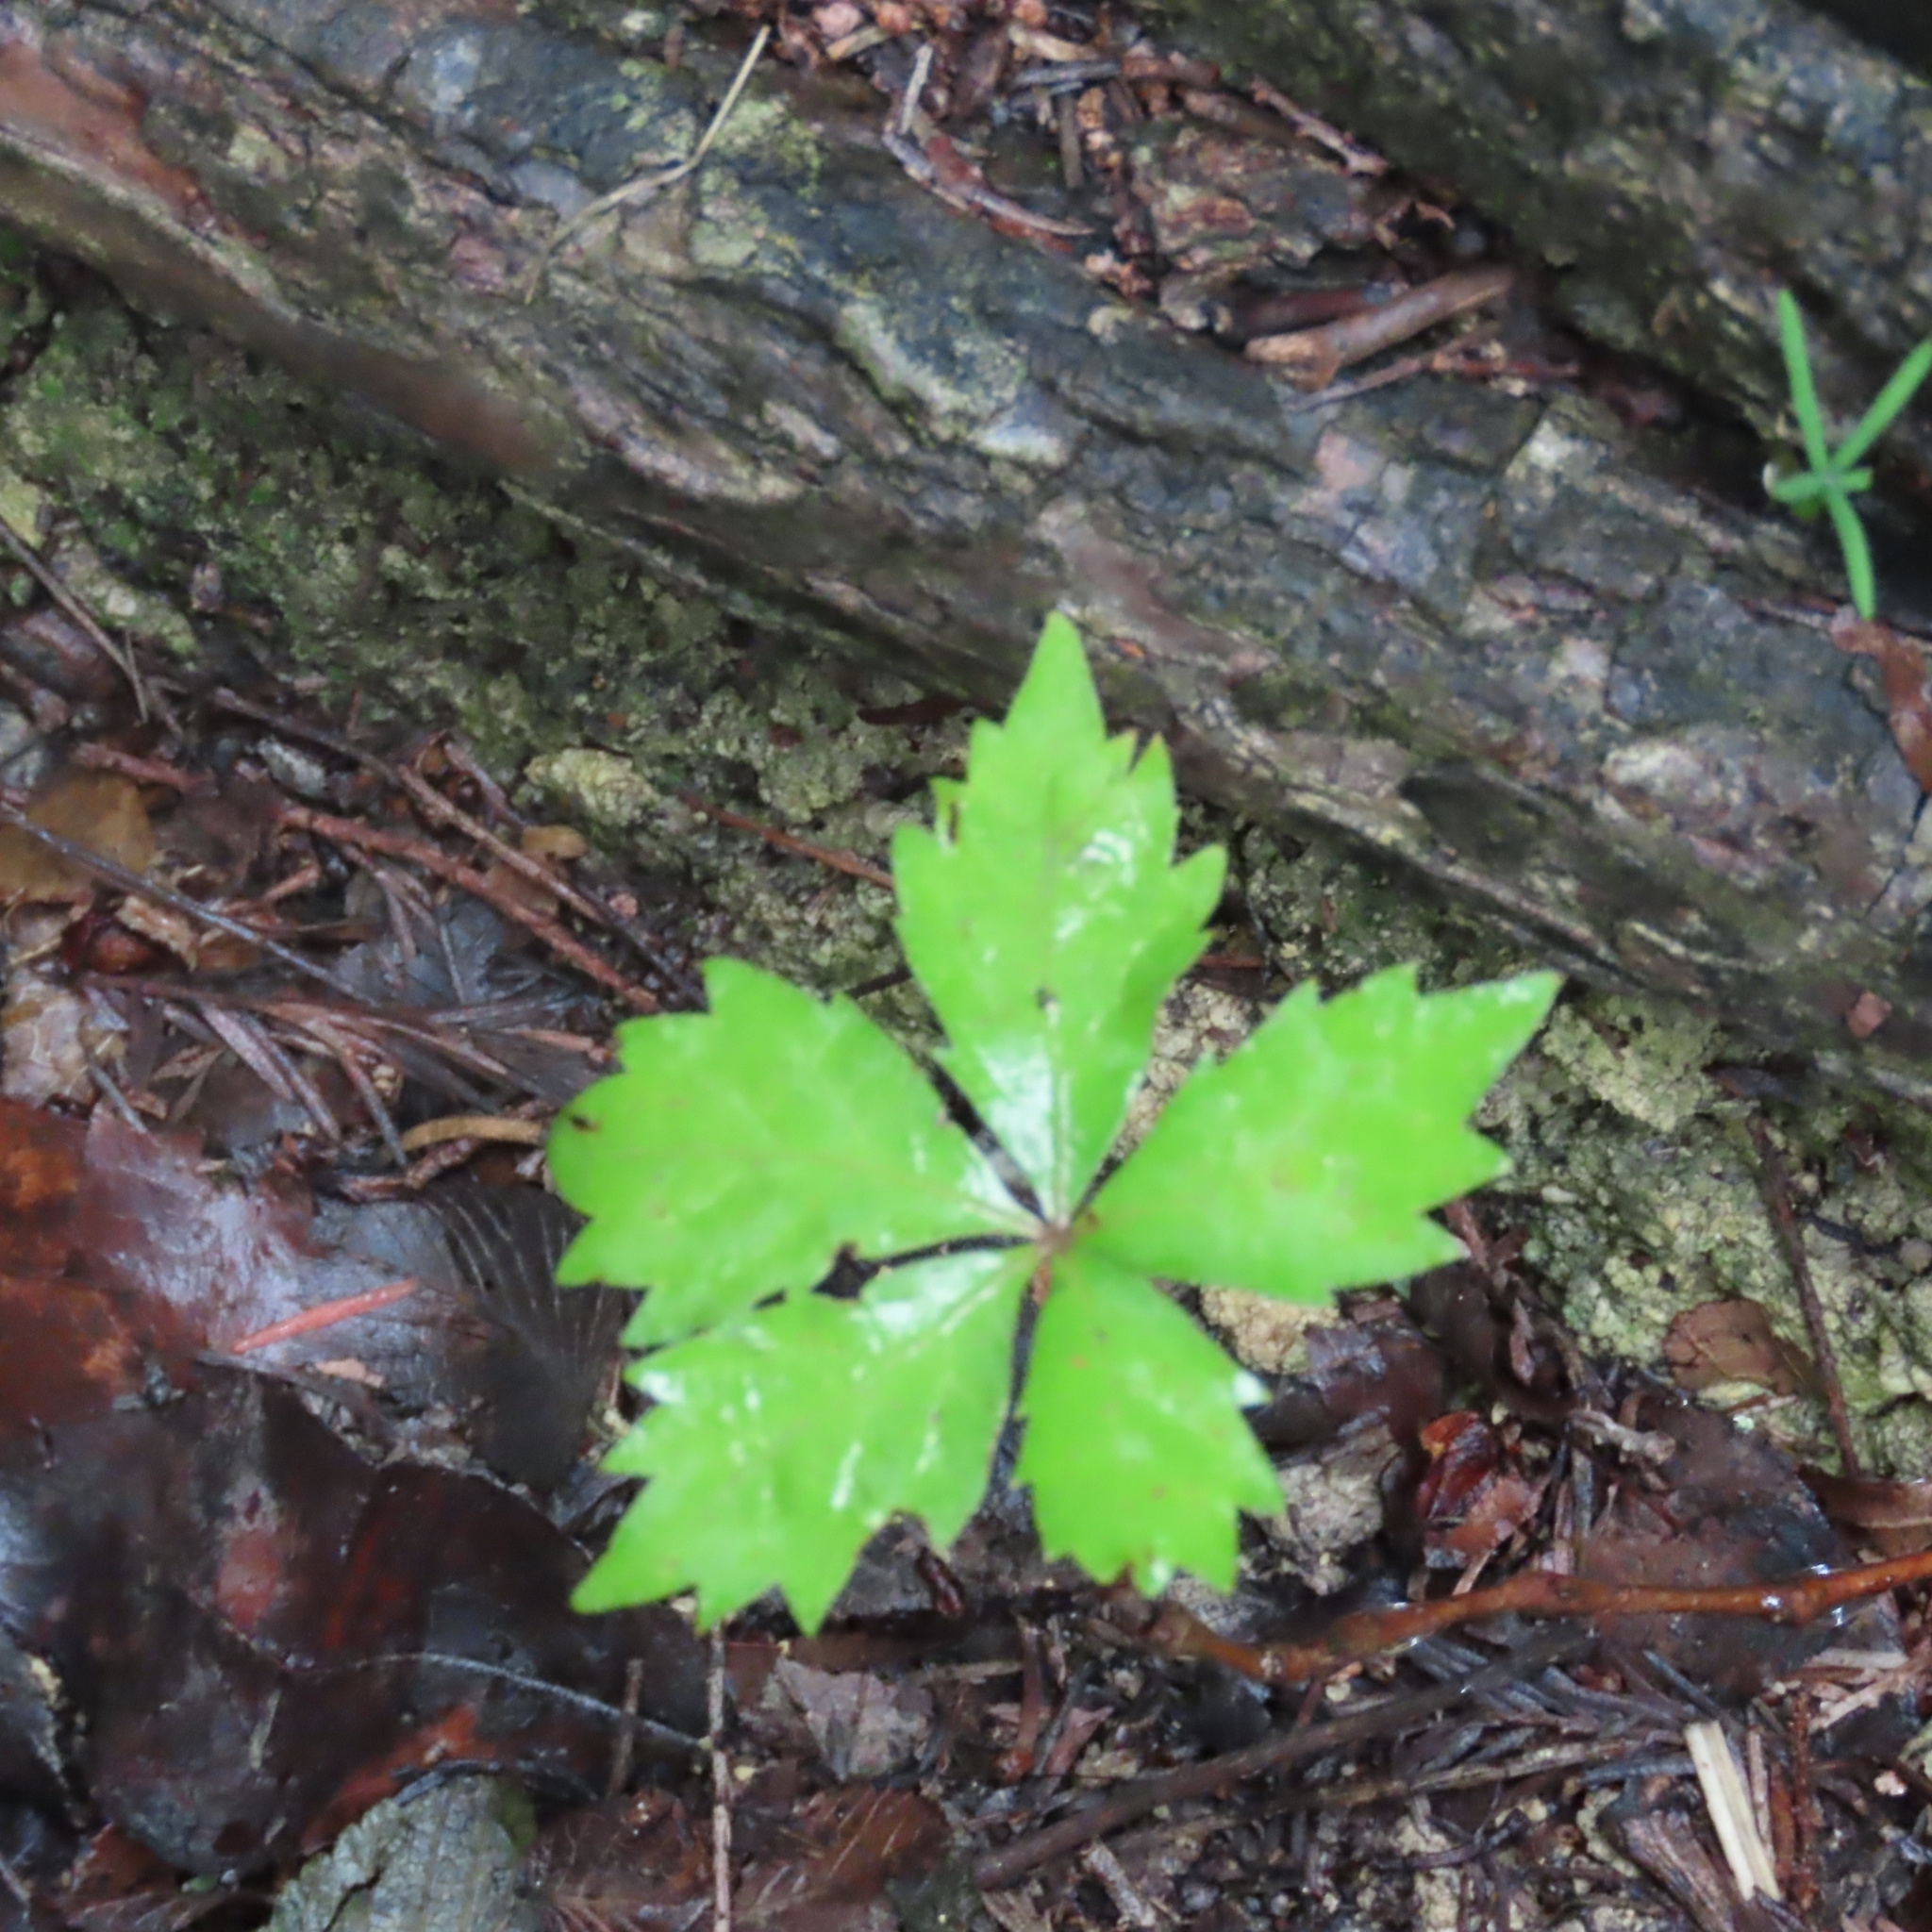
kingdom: Plantae
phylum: Tracheophyta
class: Magnoliopsida
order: Vitales
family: Vitaceae
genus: Parthenocissus
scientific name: Parthenocissus quinquefolia
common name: Virginia-creeper
